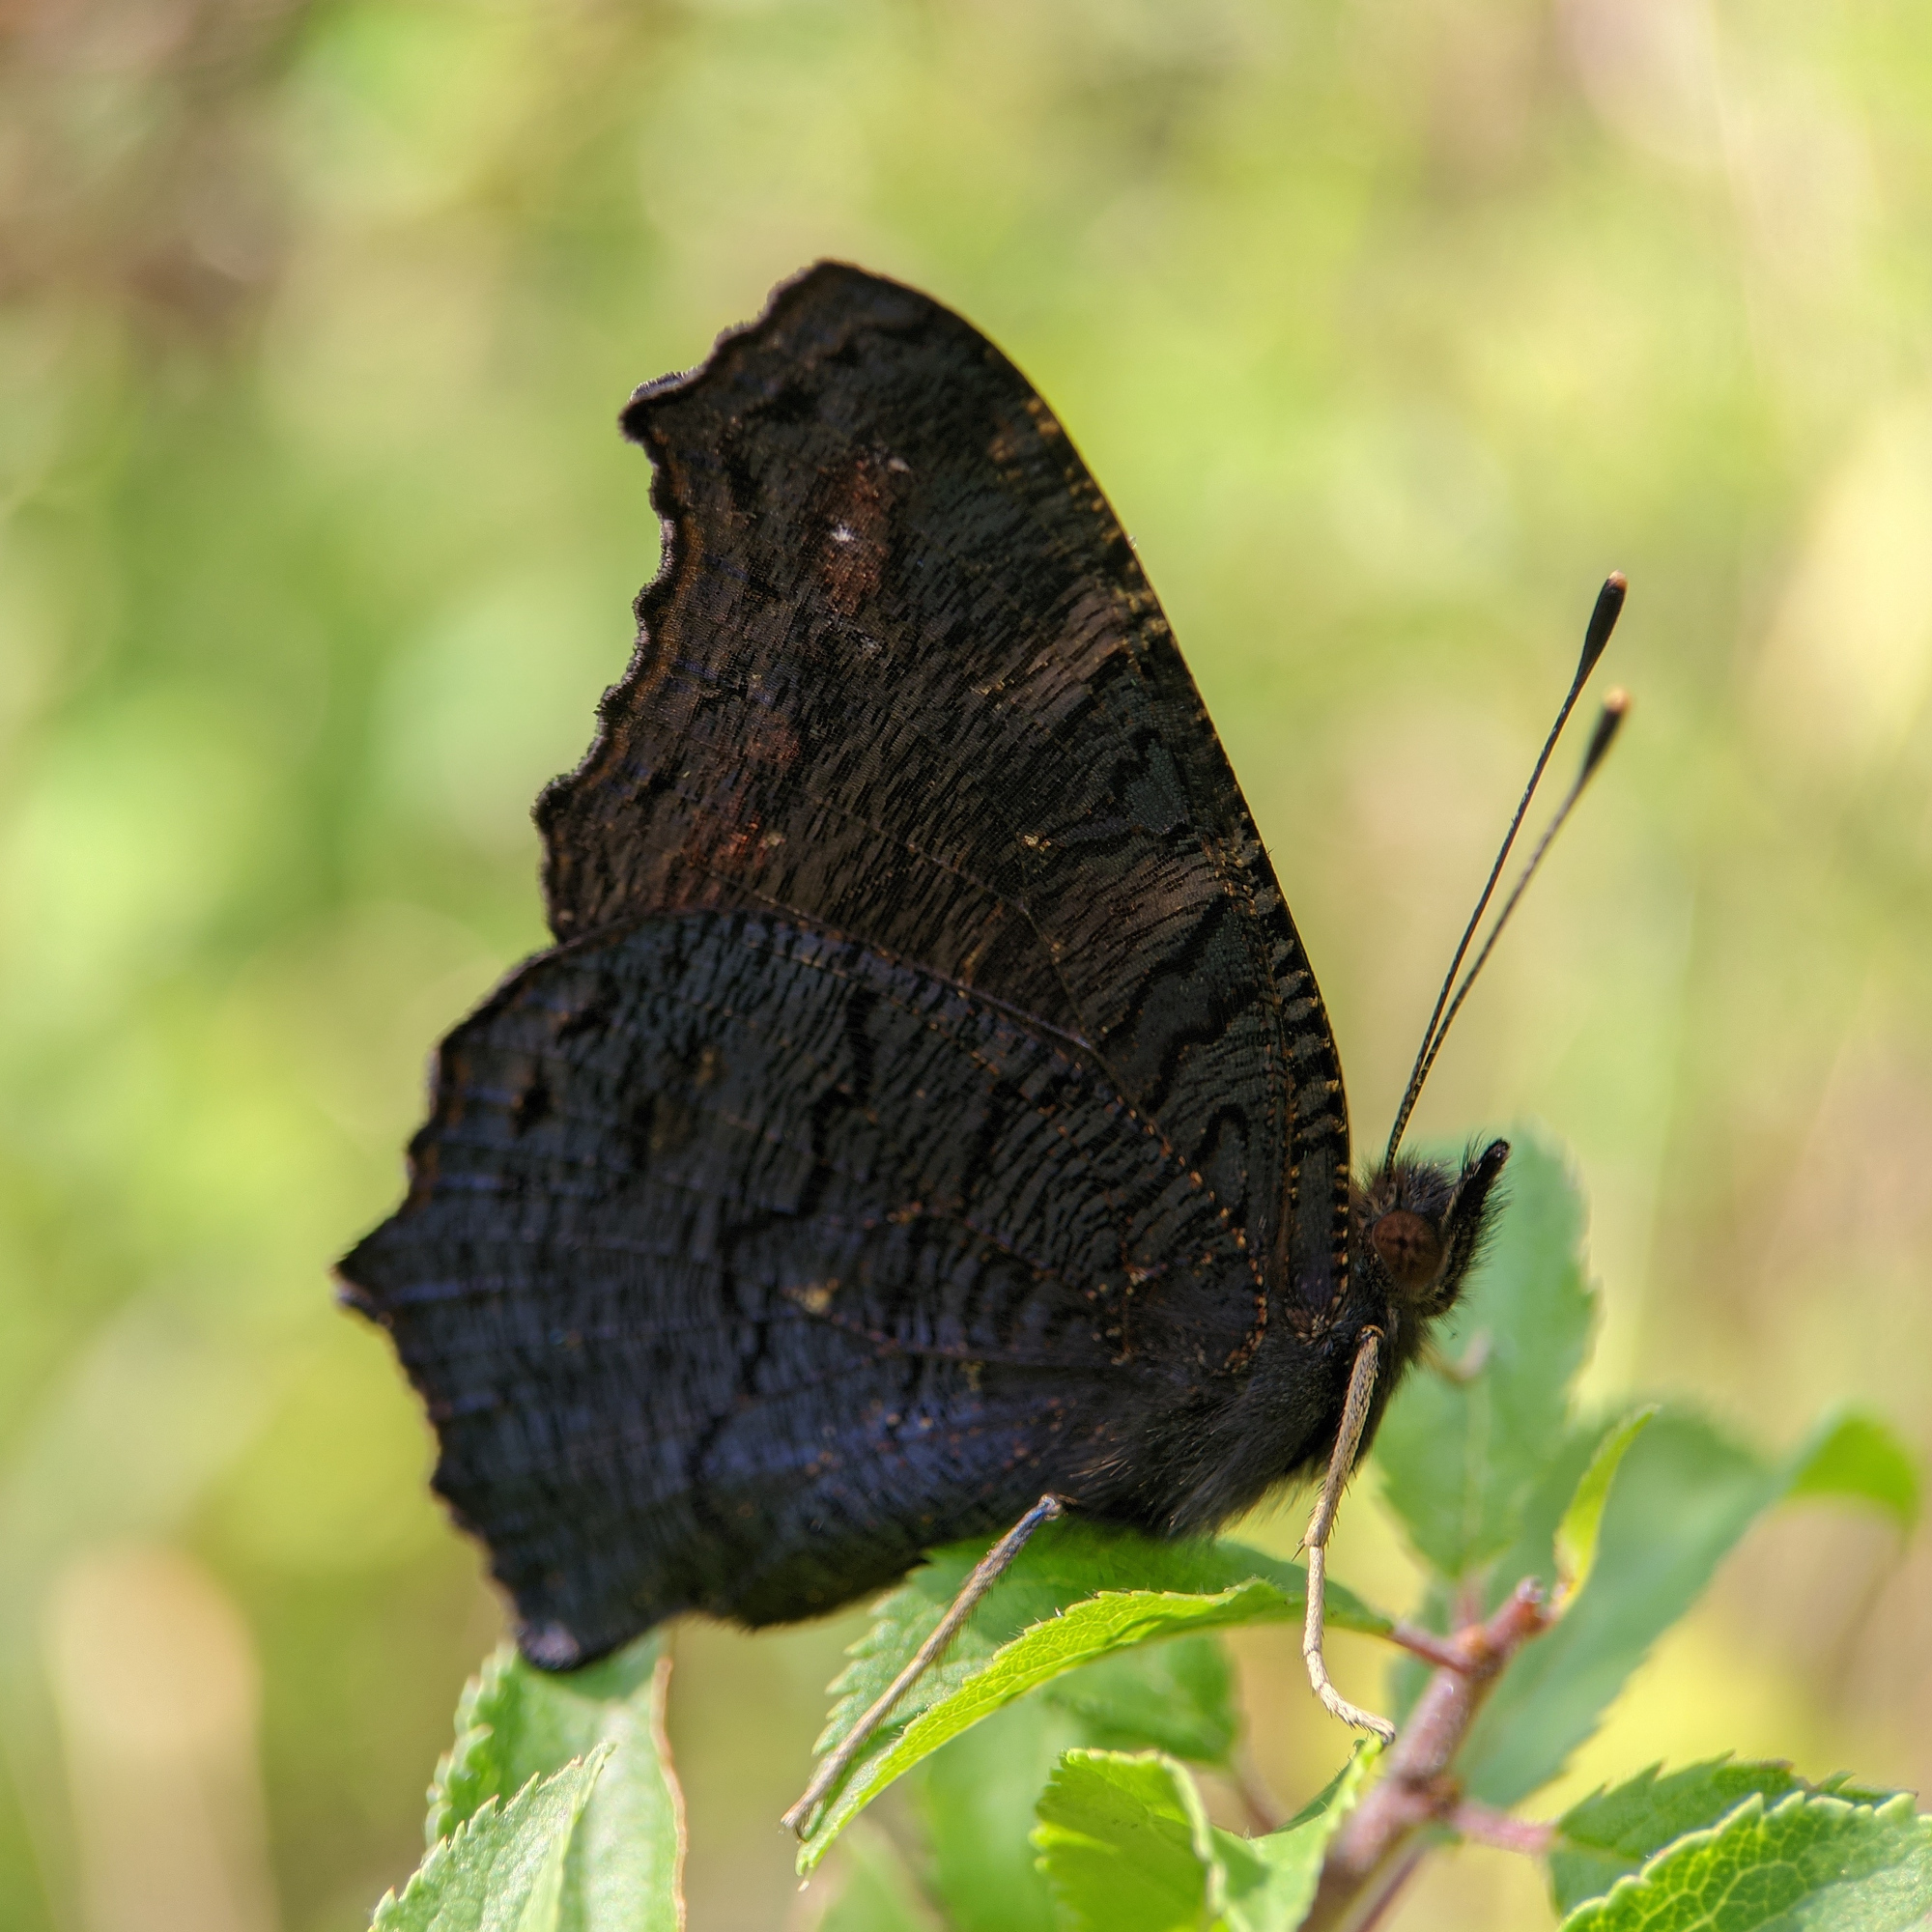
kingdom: Animalia
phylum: Arthropoda
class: Insecta
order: Lepidoptera
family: Nymphalidae
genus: Aglais
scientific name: Aglais io
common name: Peacock
